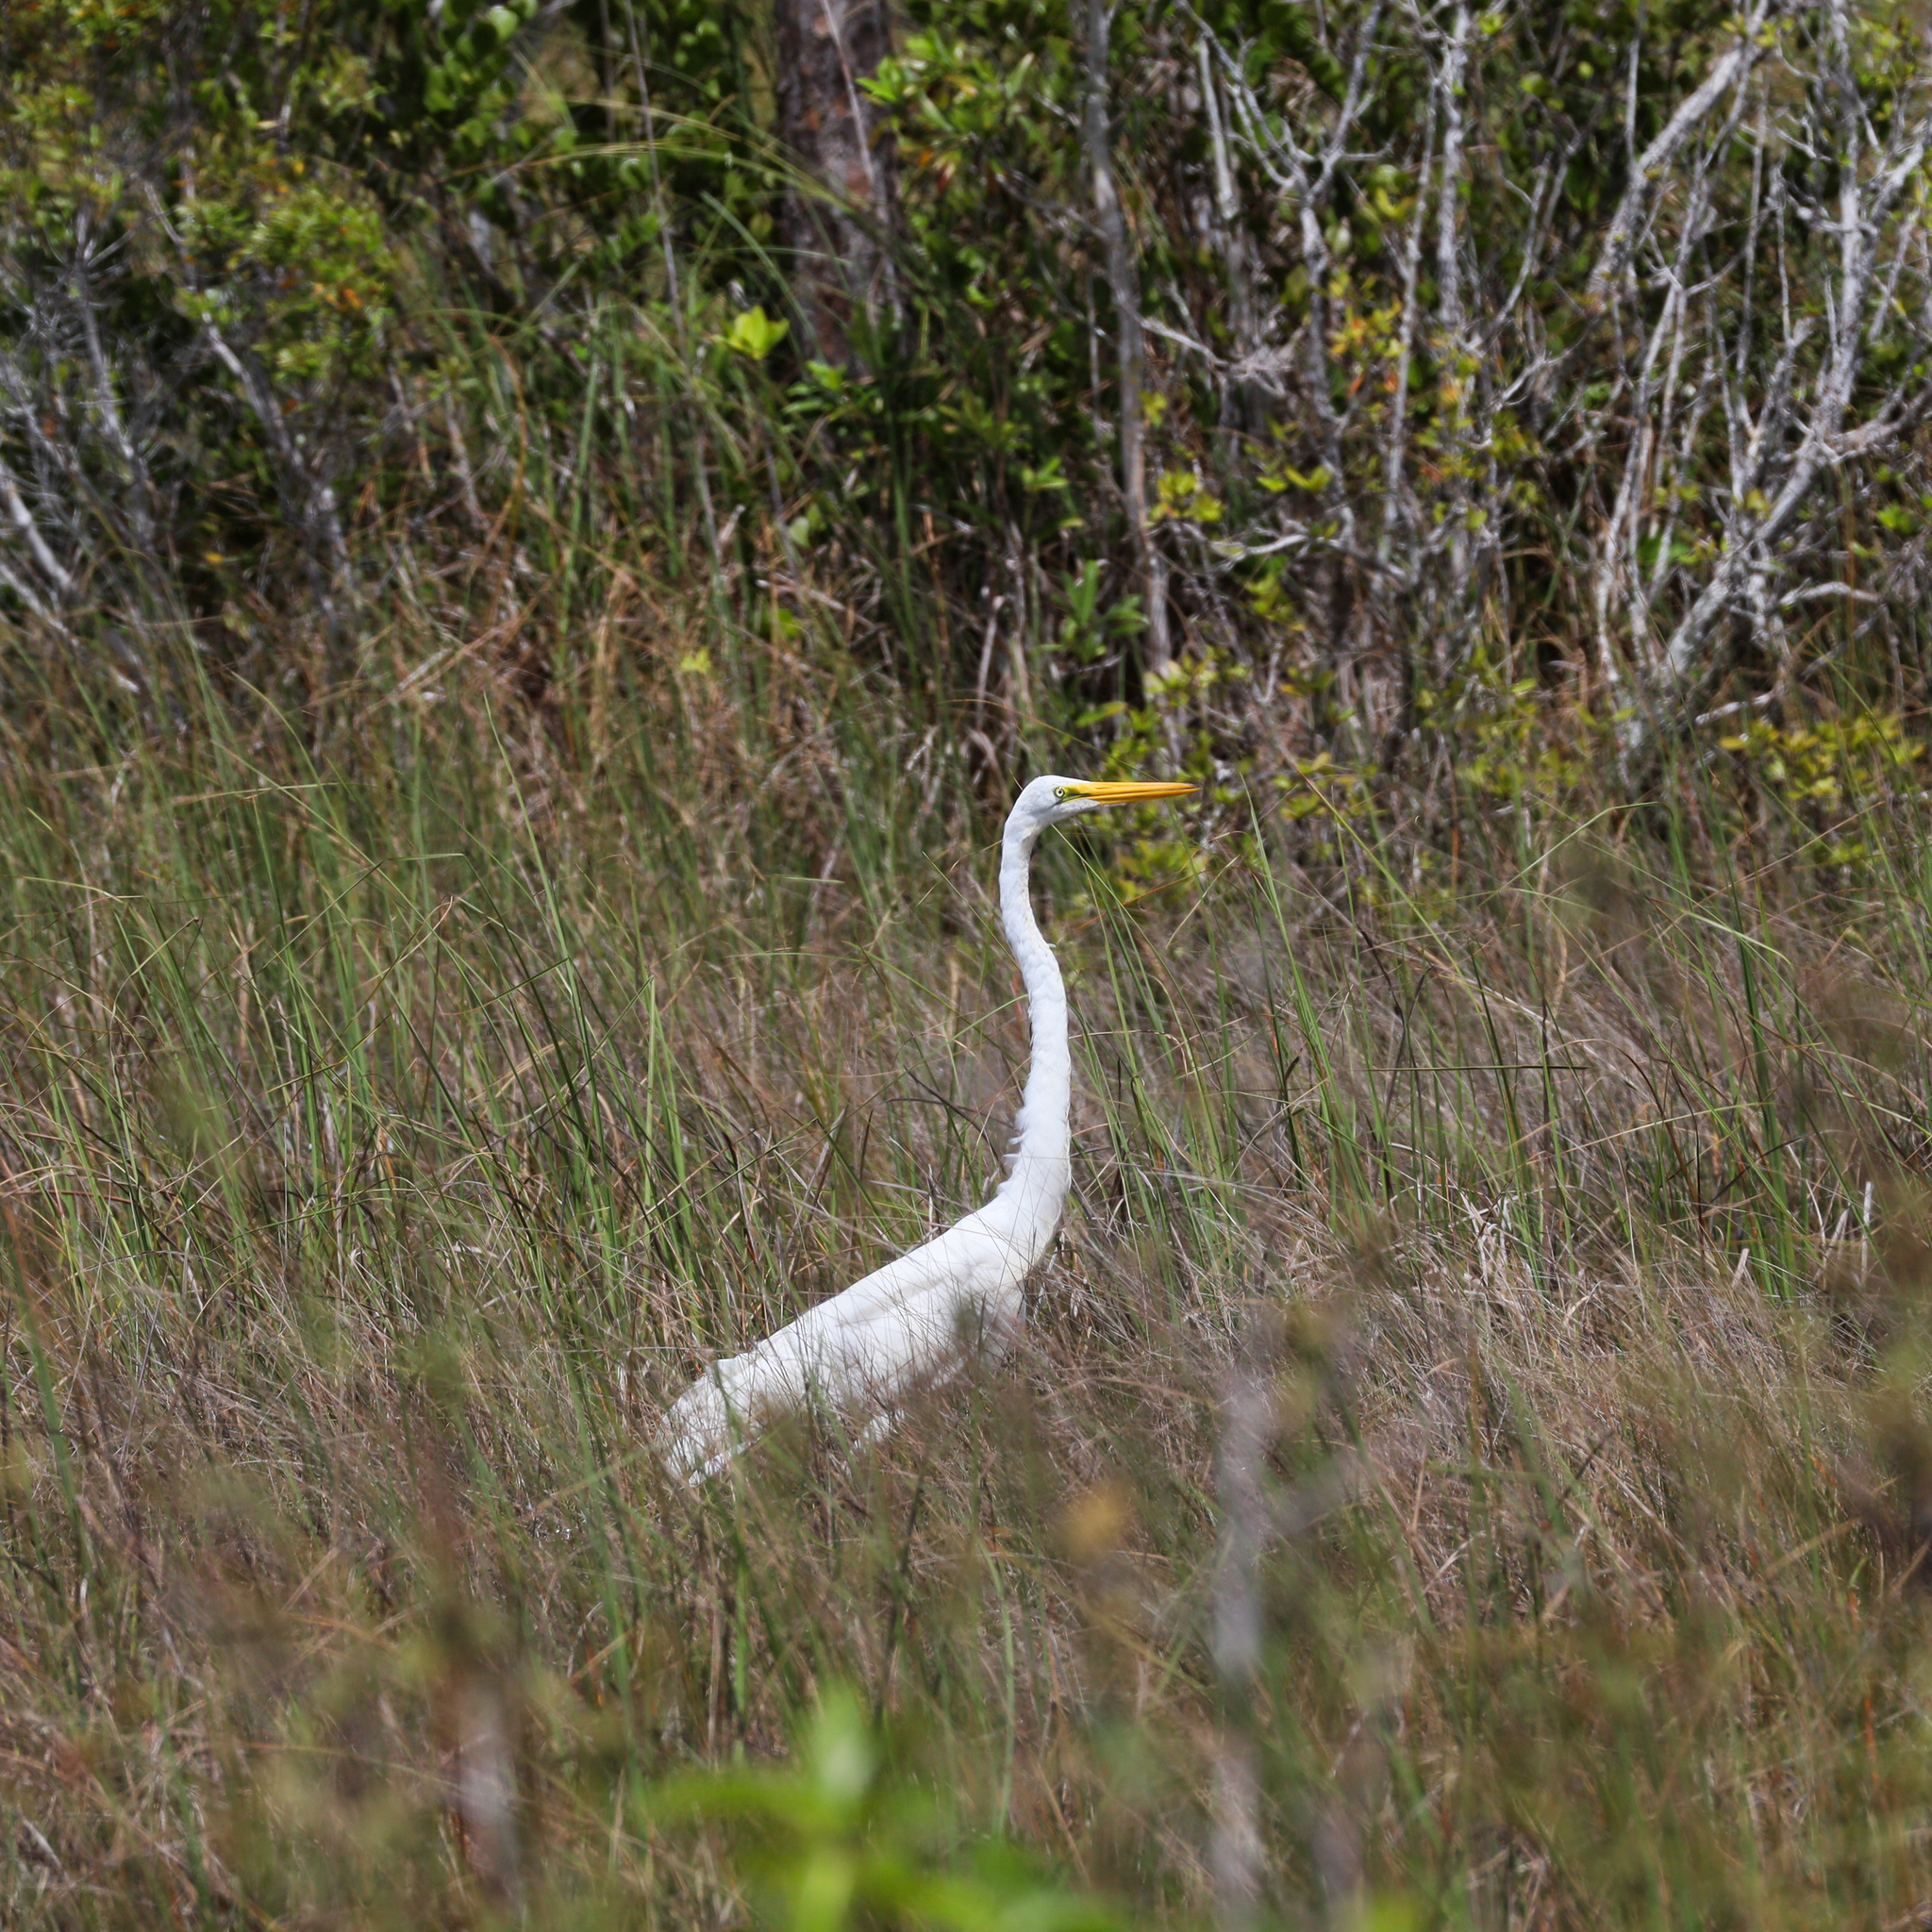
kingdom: Animalia
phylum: Chordata
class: Aves
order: Pelecaniformes
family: Ardeidae
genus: Ardea
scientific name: Ardea alba
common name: Great egret
